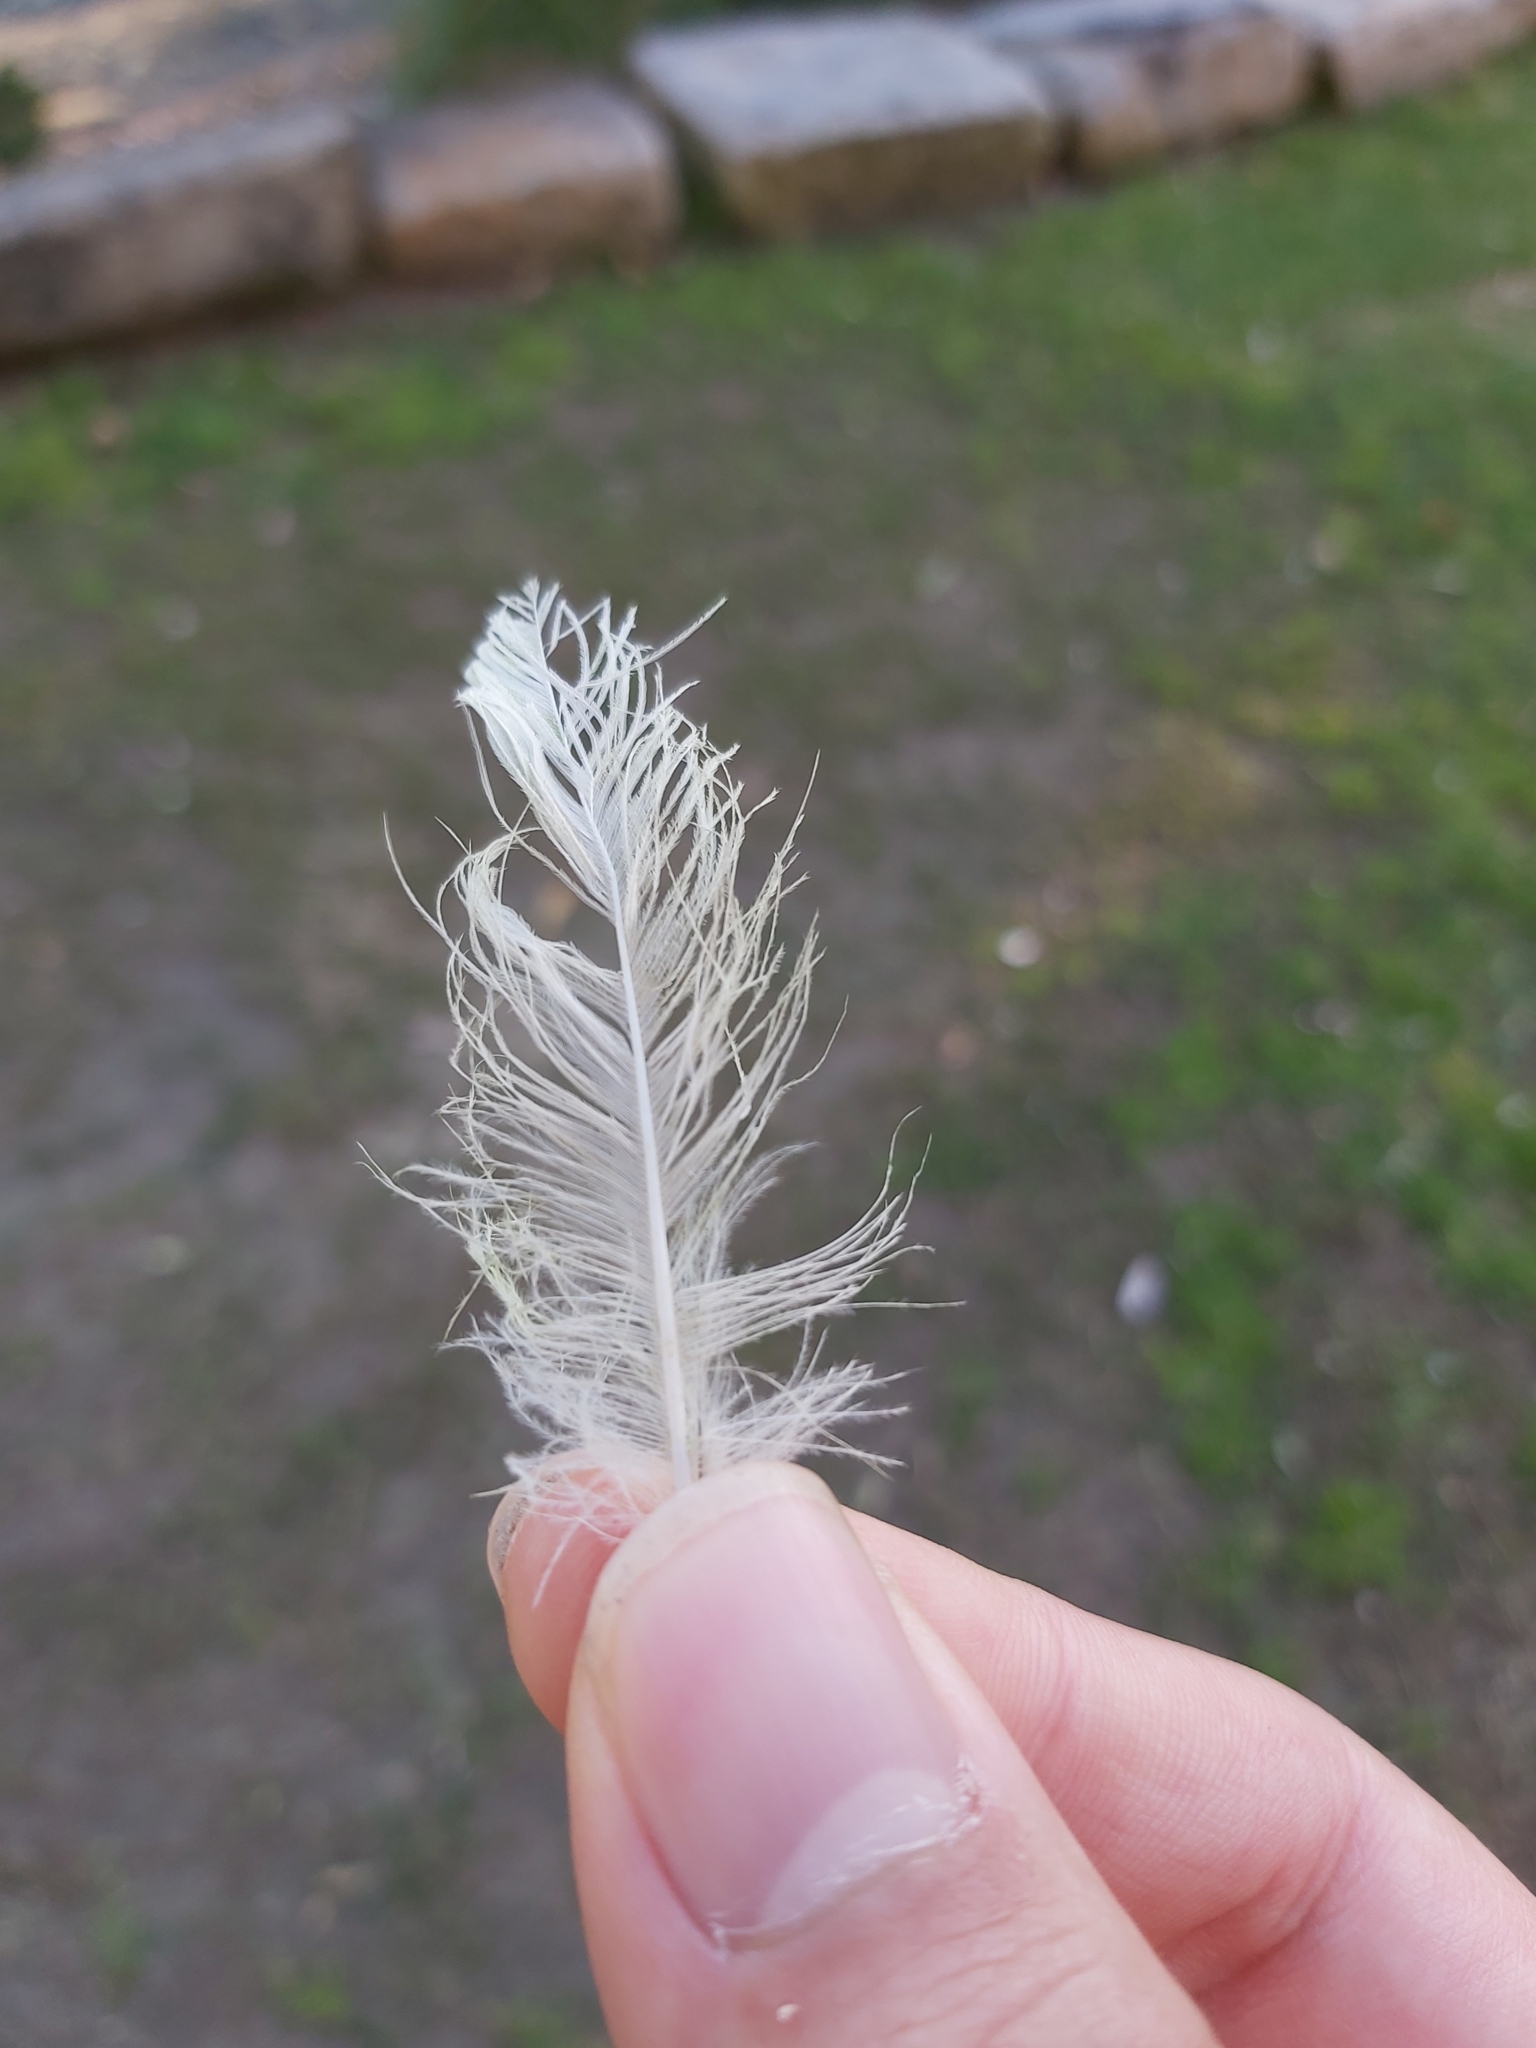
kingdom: Animalia
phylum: Chordata
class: Aves
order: Psittaciformes
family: Psittacidae
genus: Cacatua
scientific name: Cacatua galerita
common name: Sulphur-crested cockatoo
